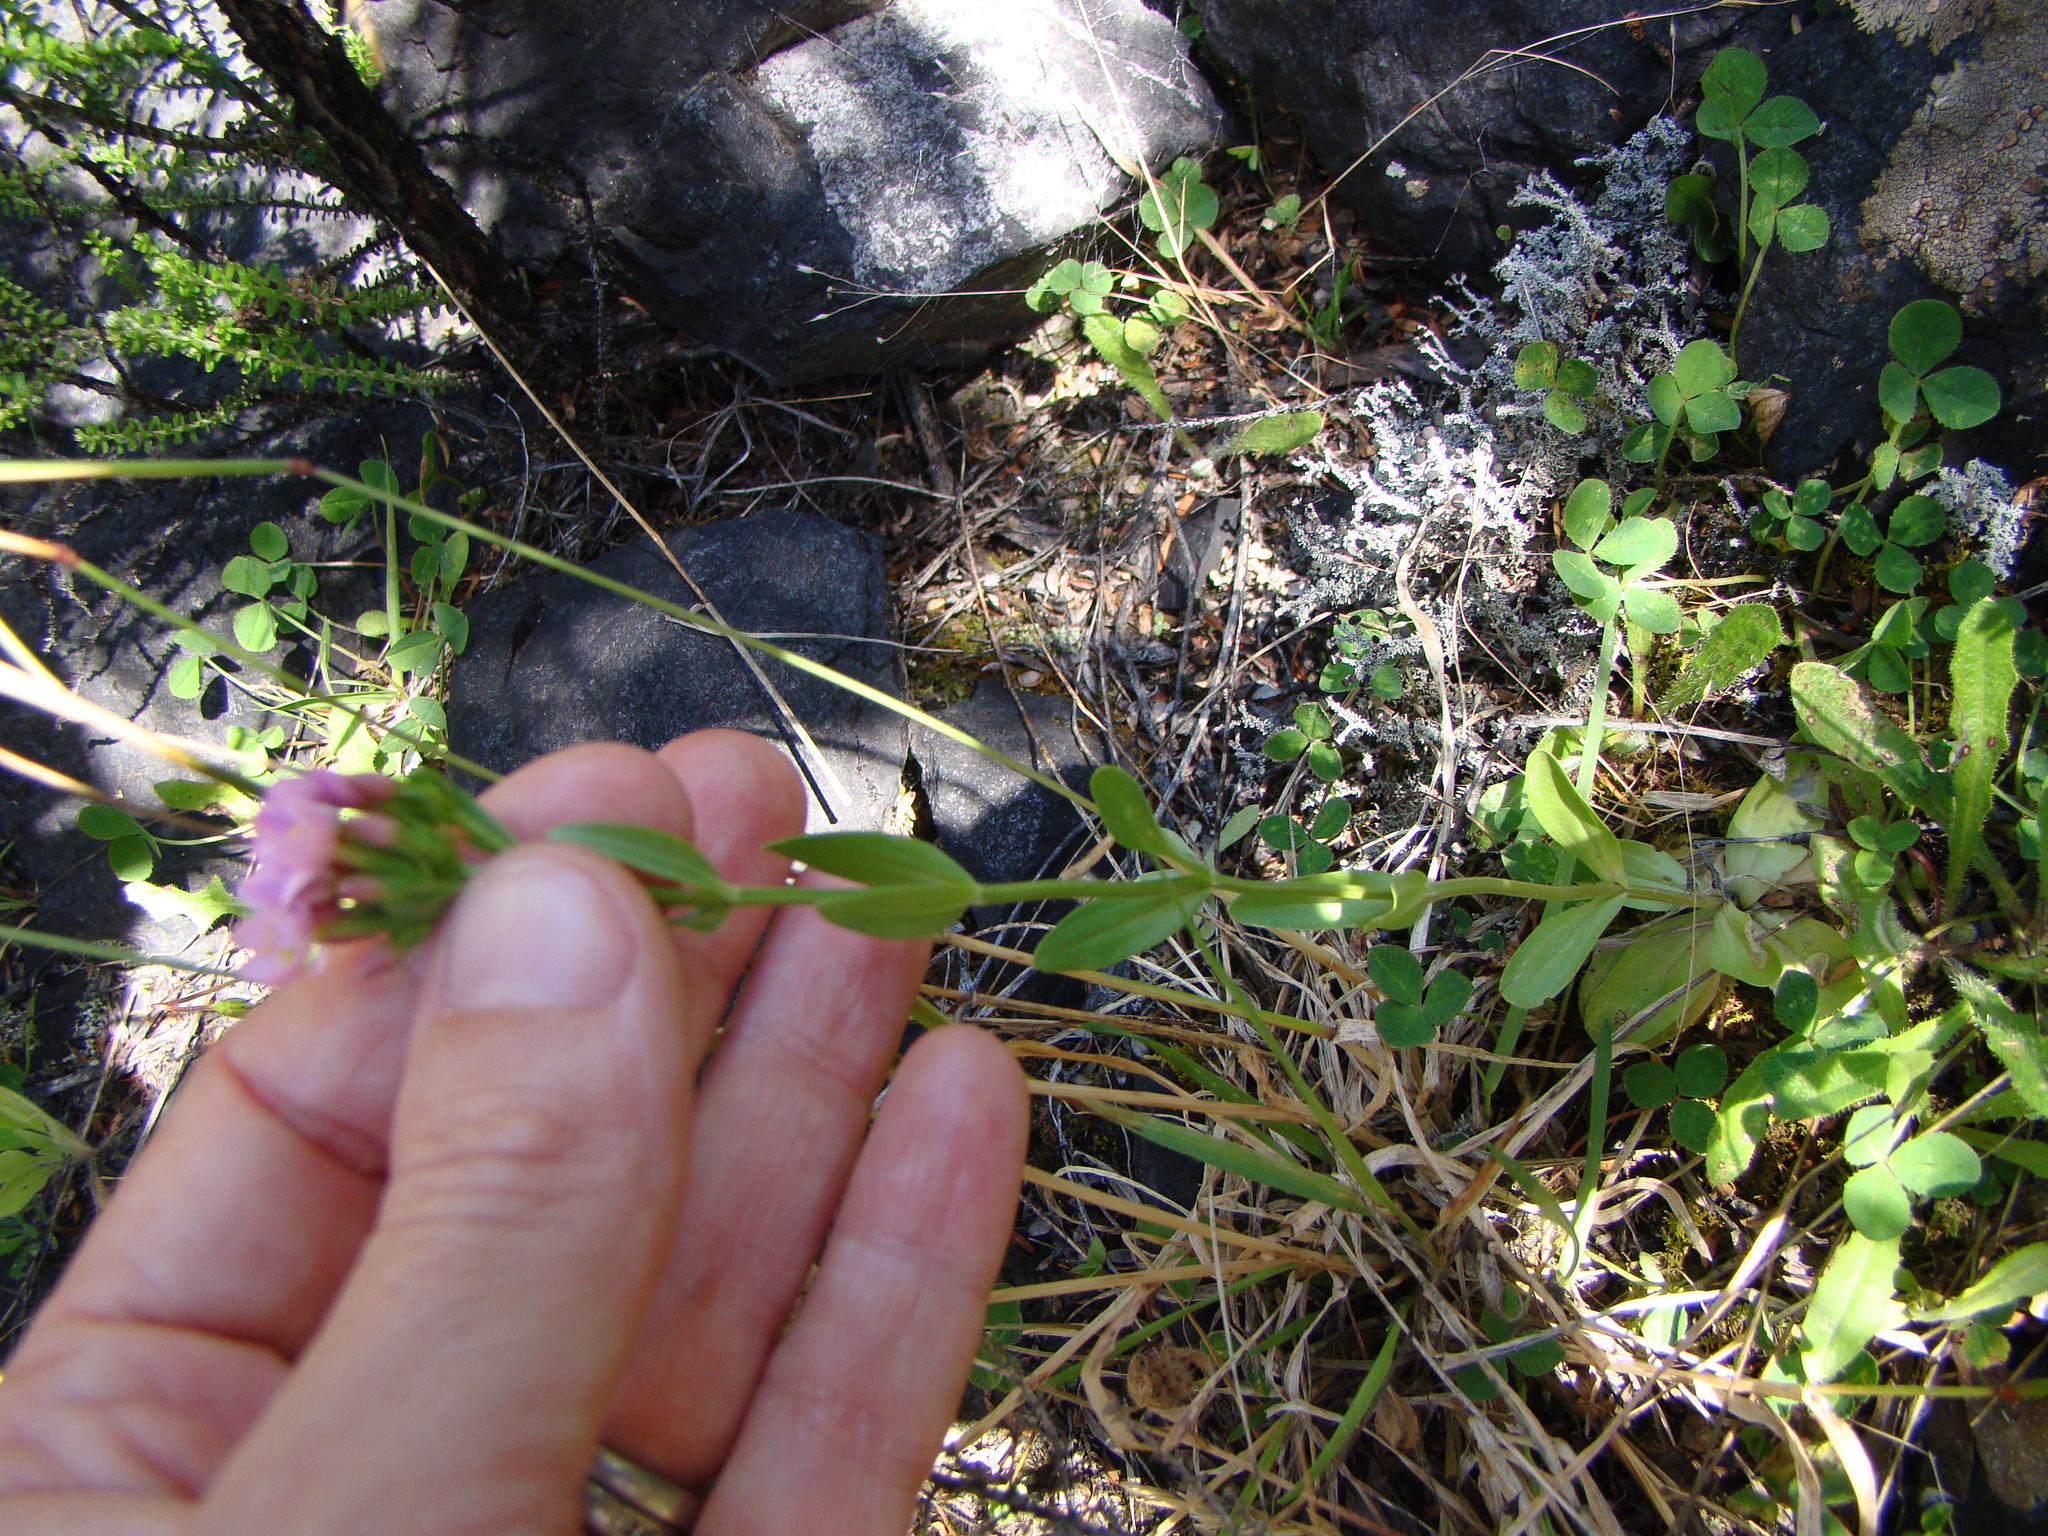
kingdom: Plantae
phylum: Tracheophyta
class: Magnoliopsida
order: Gentianales
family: Gentianaceae
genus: Centaurium
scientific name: Centaurium erythraea
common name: Common centaury
